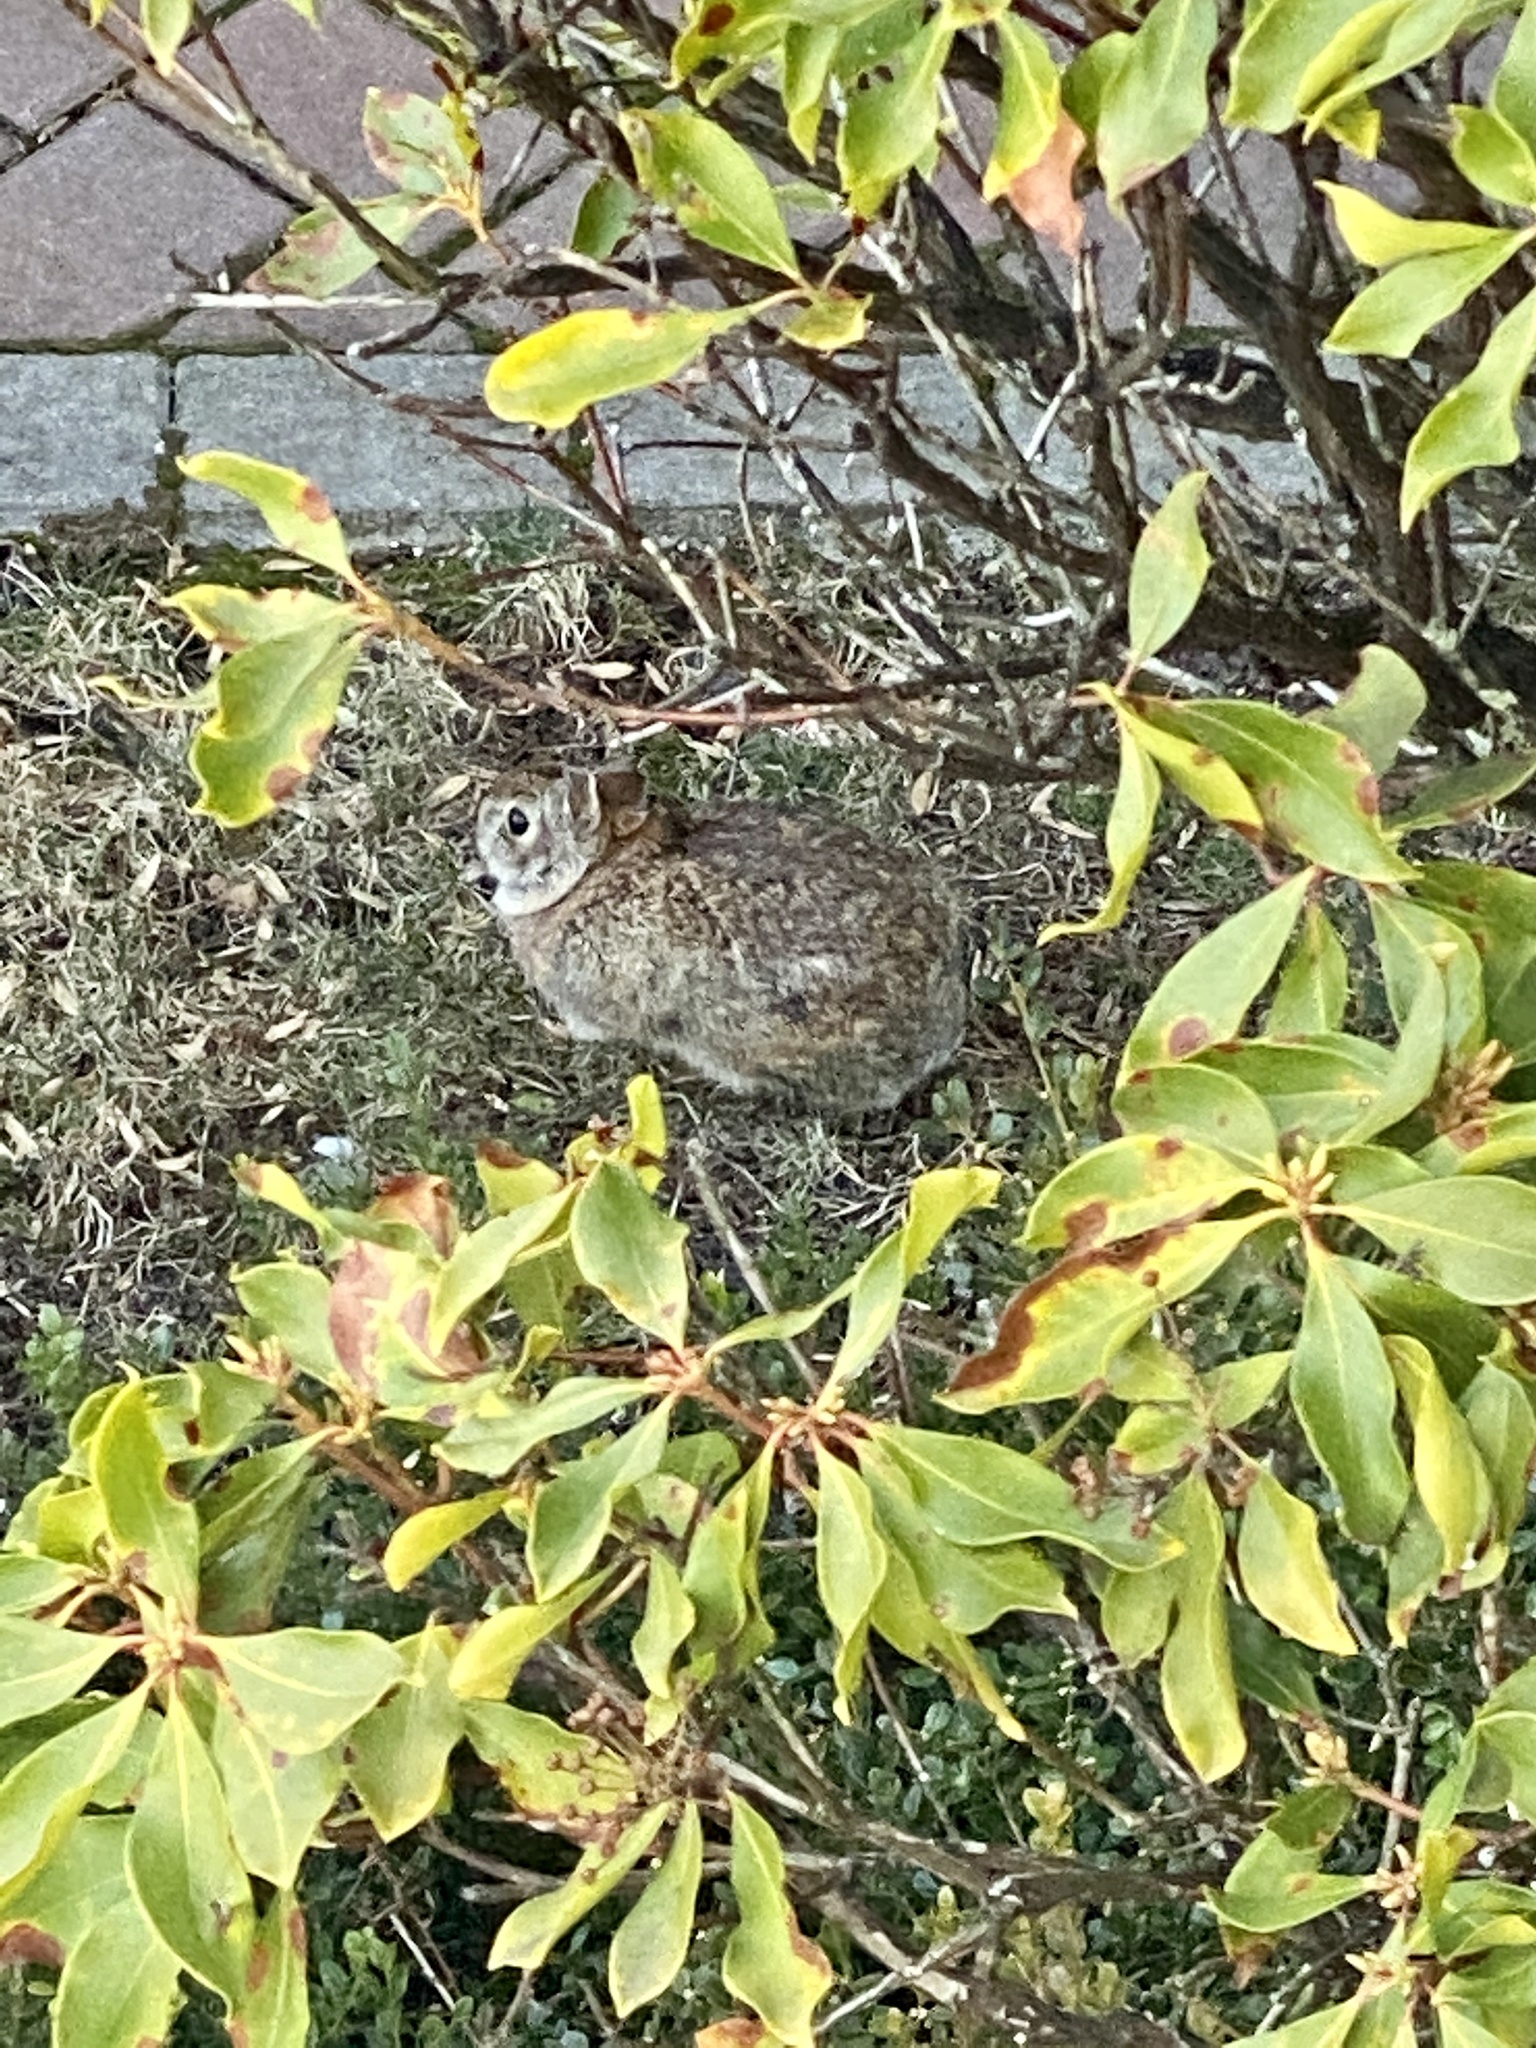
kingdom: Animalia
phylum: Chordata
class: Mammalia
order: Lagomorpha
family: Leporidae
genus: Sylvilagus
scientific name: Sylvilagus floridanus
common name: Eastern cottontail
